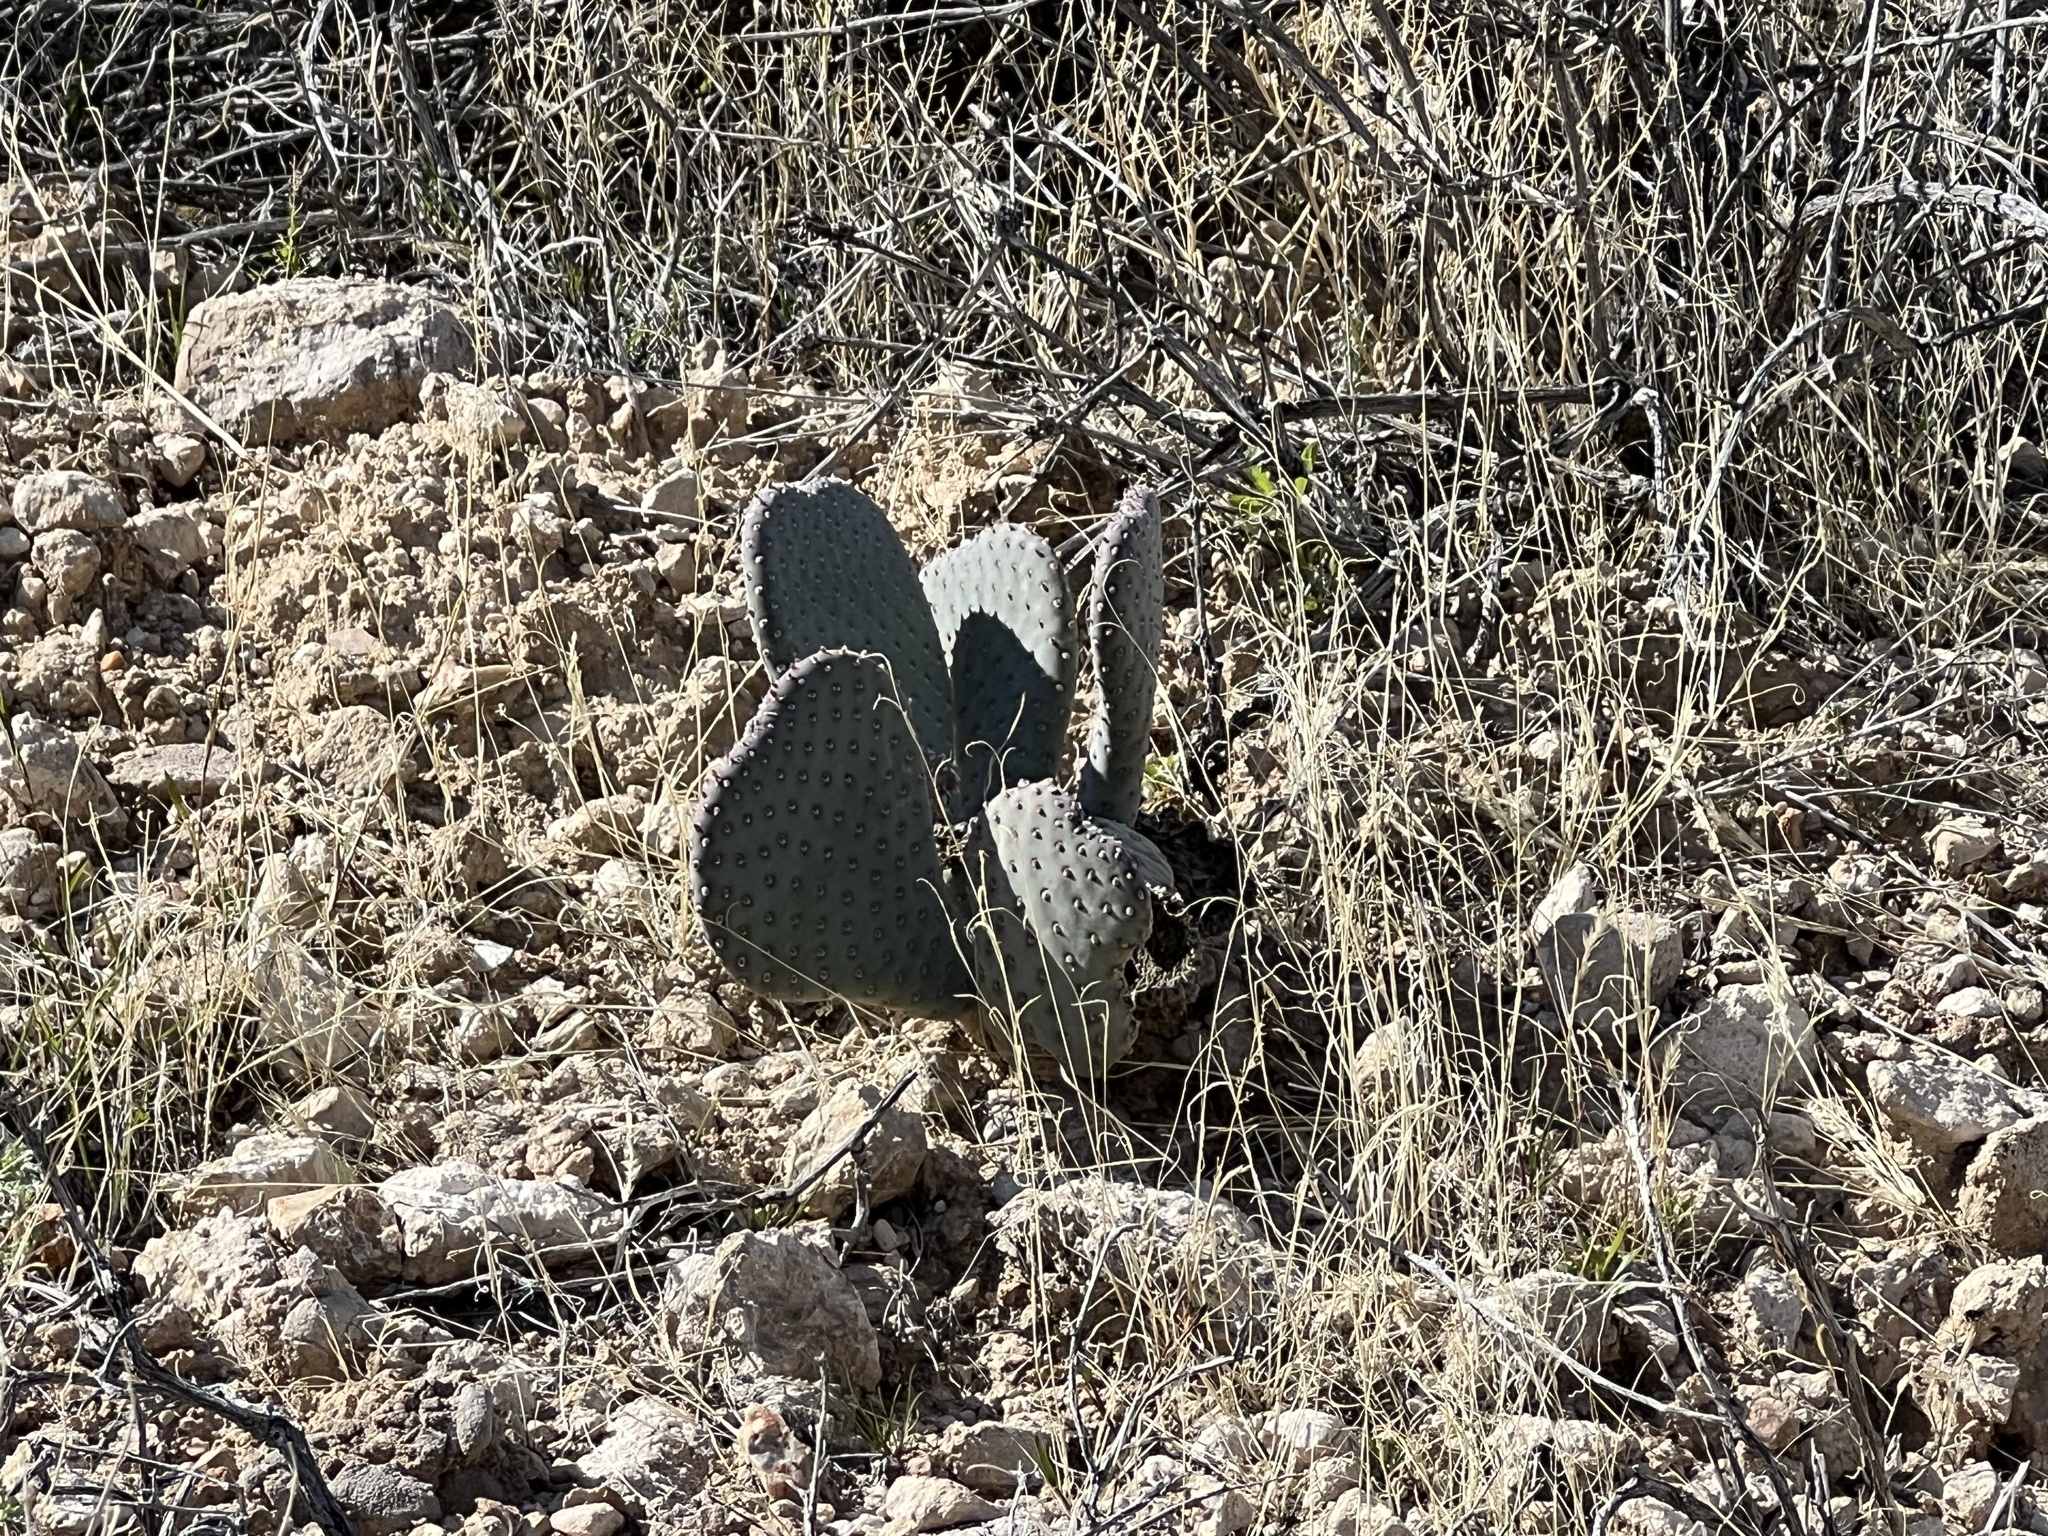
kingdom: Plantae
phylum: Tracheophyta
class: Magnoliopsida
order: Caryophyllales
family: Cactaceae
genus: Opuntia
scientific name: Opuntia basilaris
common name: Beavertail prickly-pear
